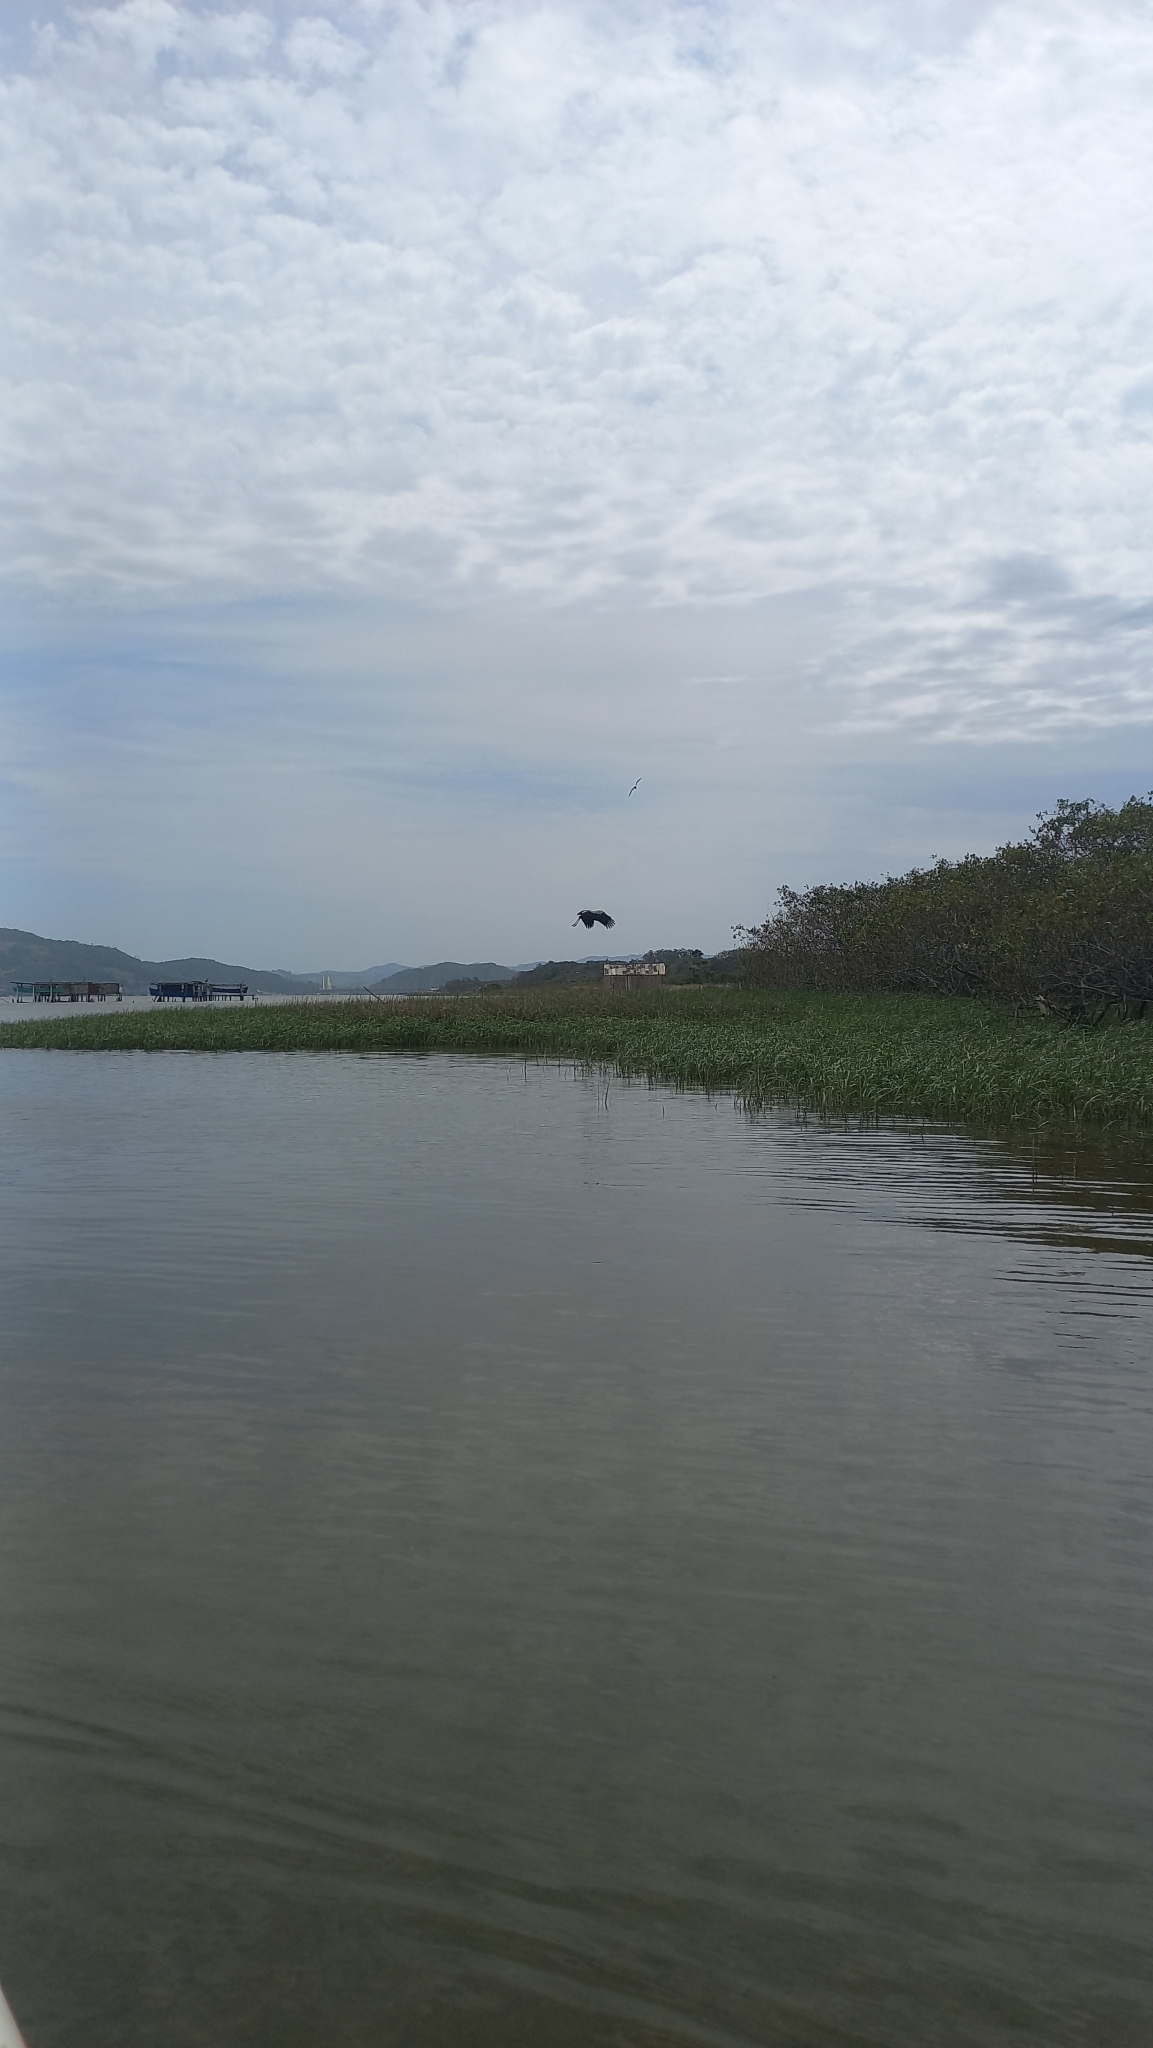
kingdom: Animalia
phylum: Chordata
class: Aves
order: Ciconiiformes
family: Ciconiidae
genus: Ciconia
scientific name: Ciconia maguari
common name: Maguari stork
